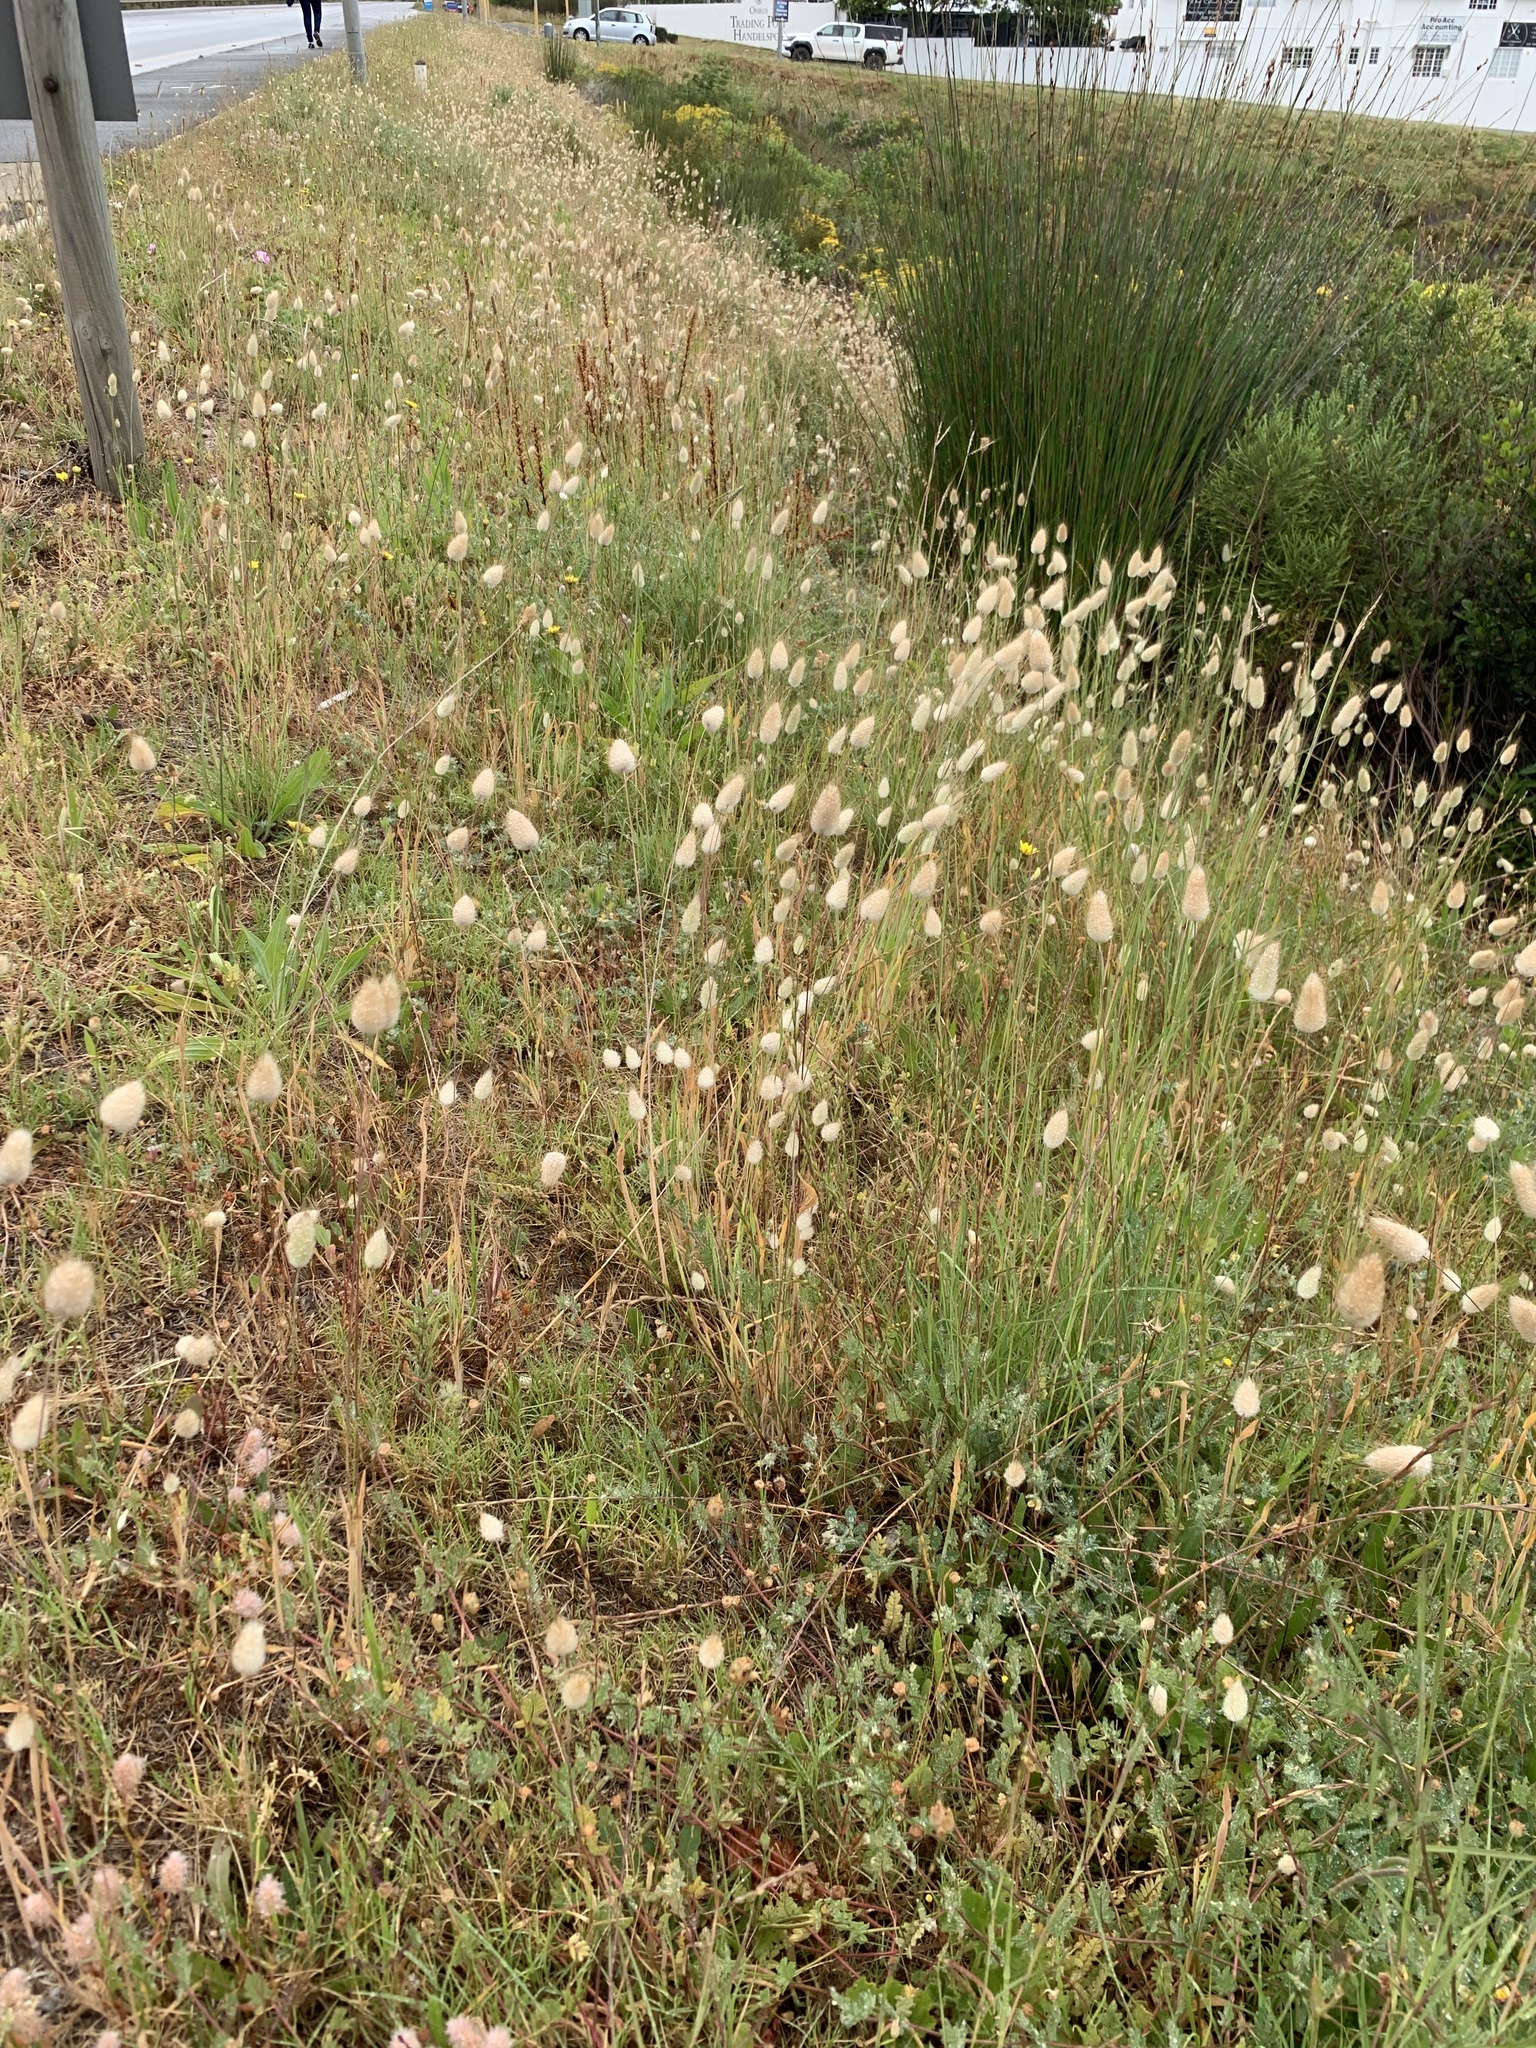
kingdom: Plantae
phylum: Tracheophyta
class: Liliopsida
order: Poales
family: Poaceae
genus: Lagurus
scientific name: Lagurus ovatus
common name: Hare's-tail
